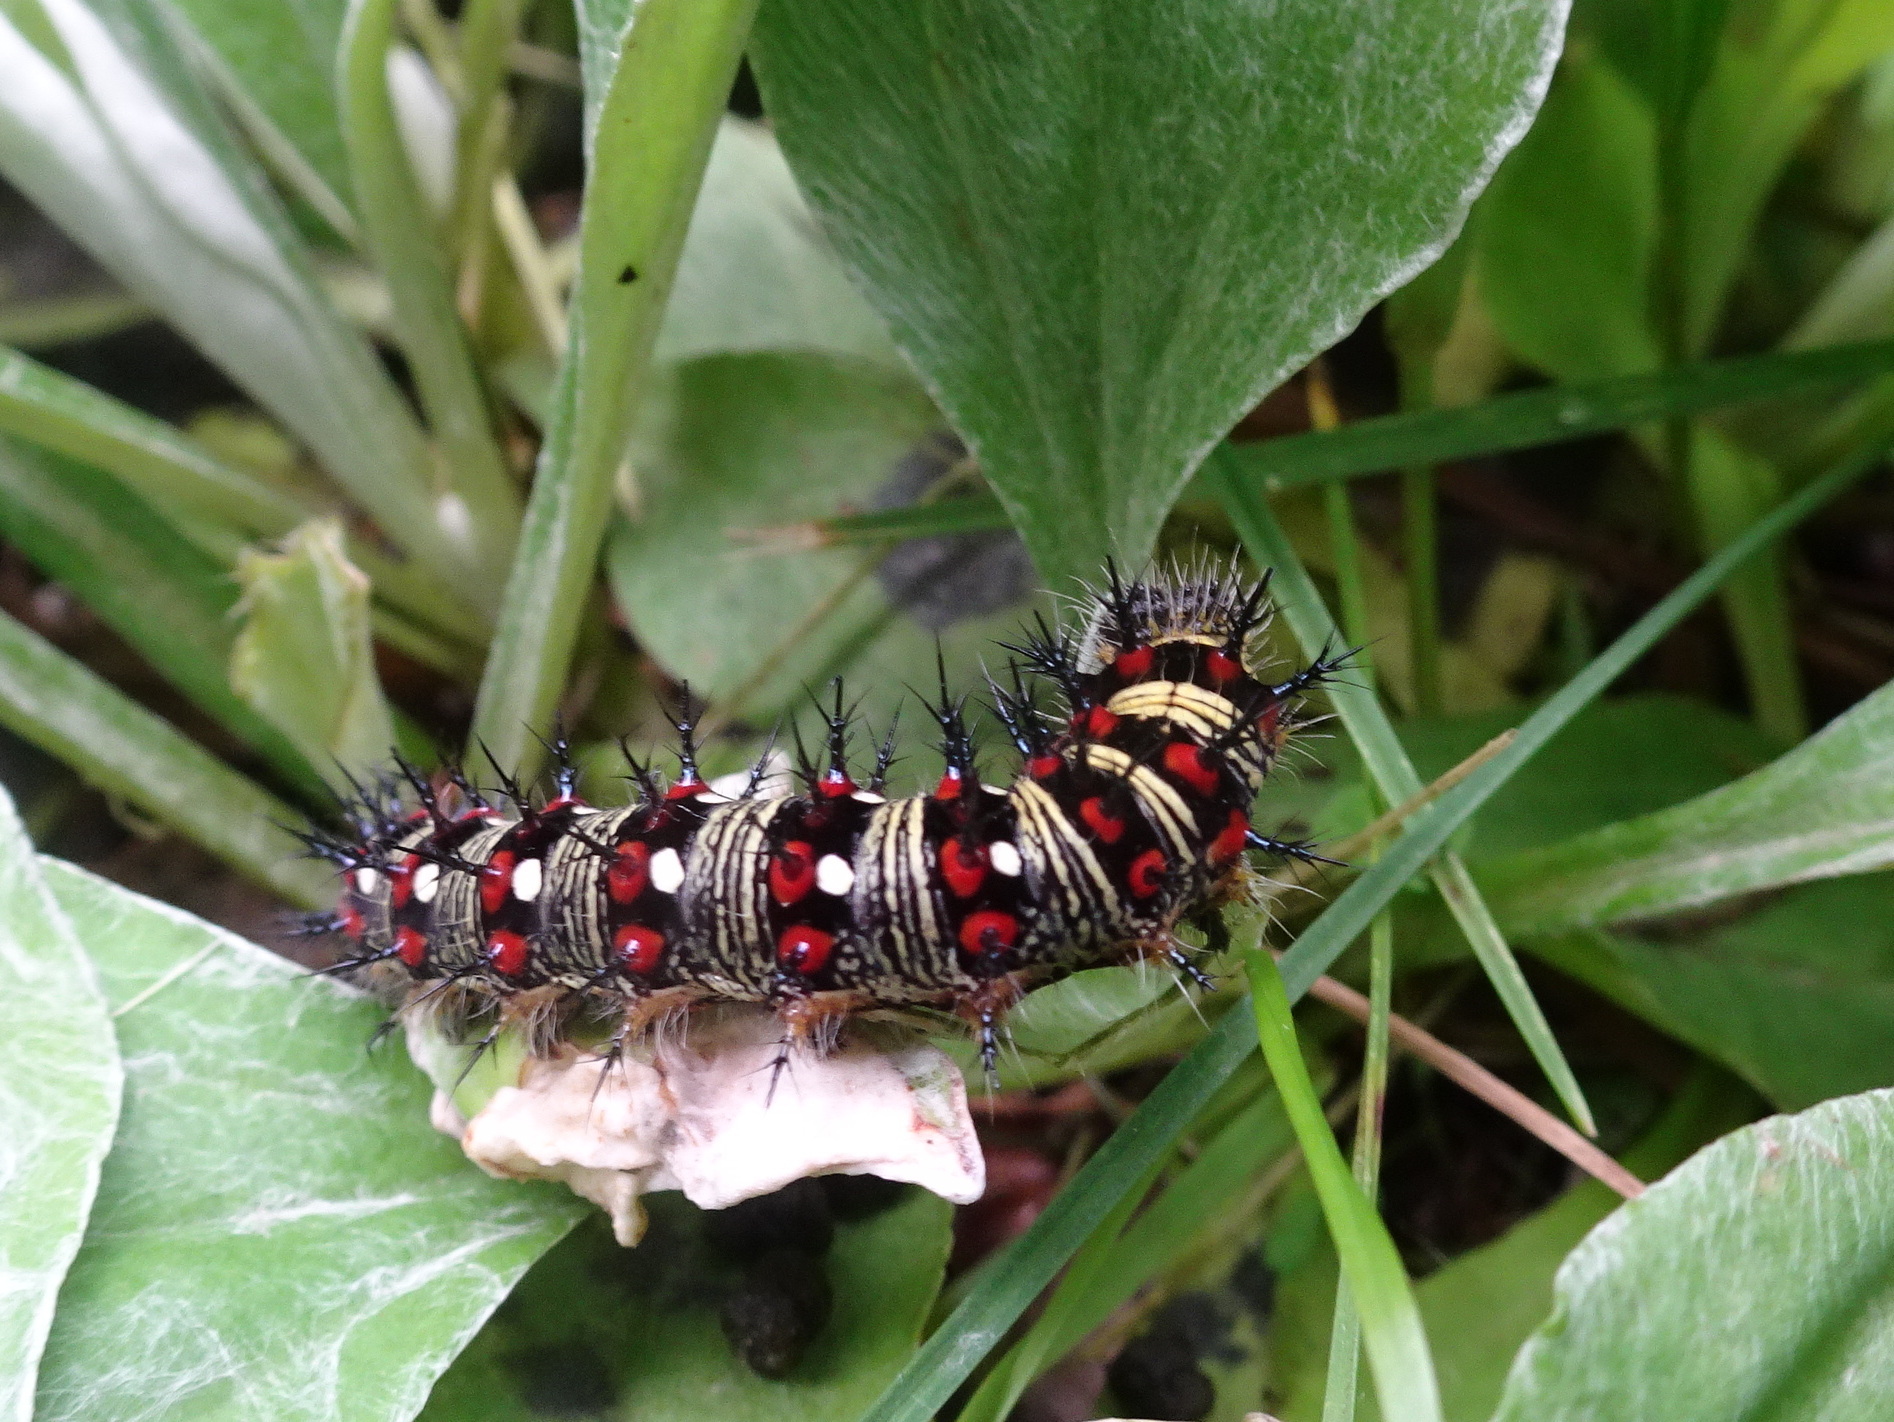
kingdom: Animalia
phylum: Arthropoda
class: Insecta
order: Lepidoptera
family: Nymphalidae
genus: Vanessa
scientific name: Vanessa virginiensis
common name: American lady
